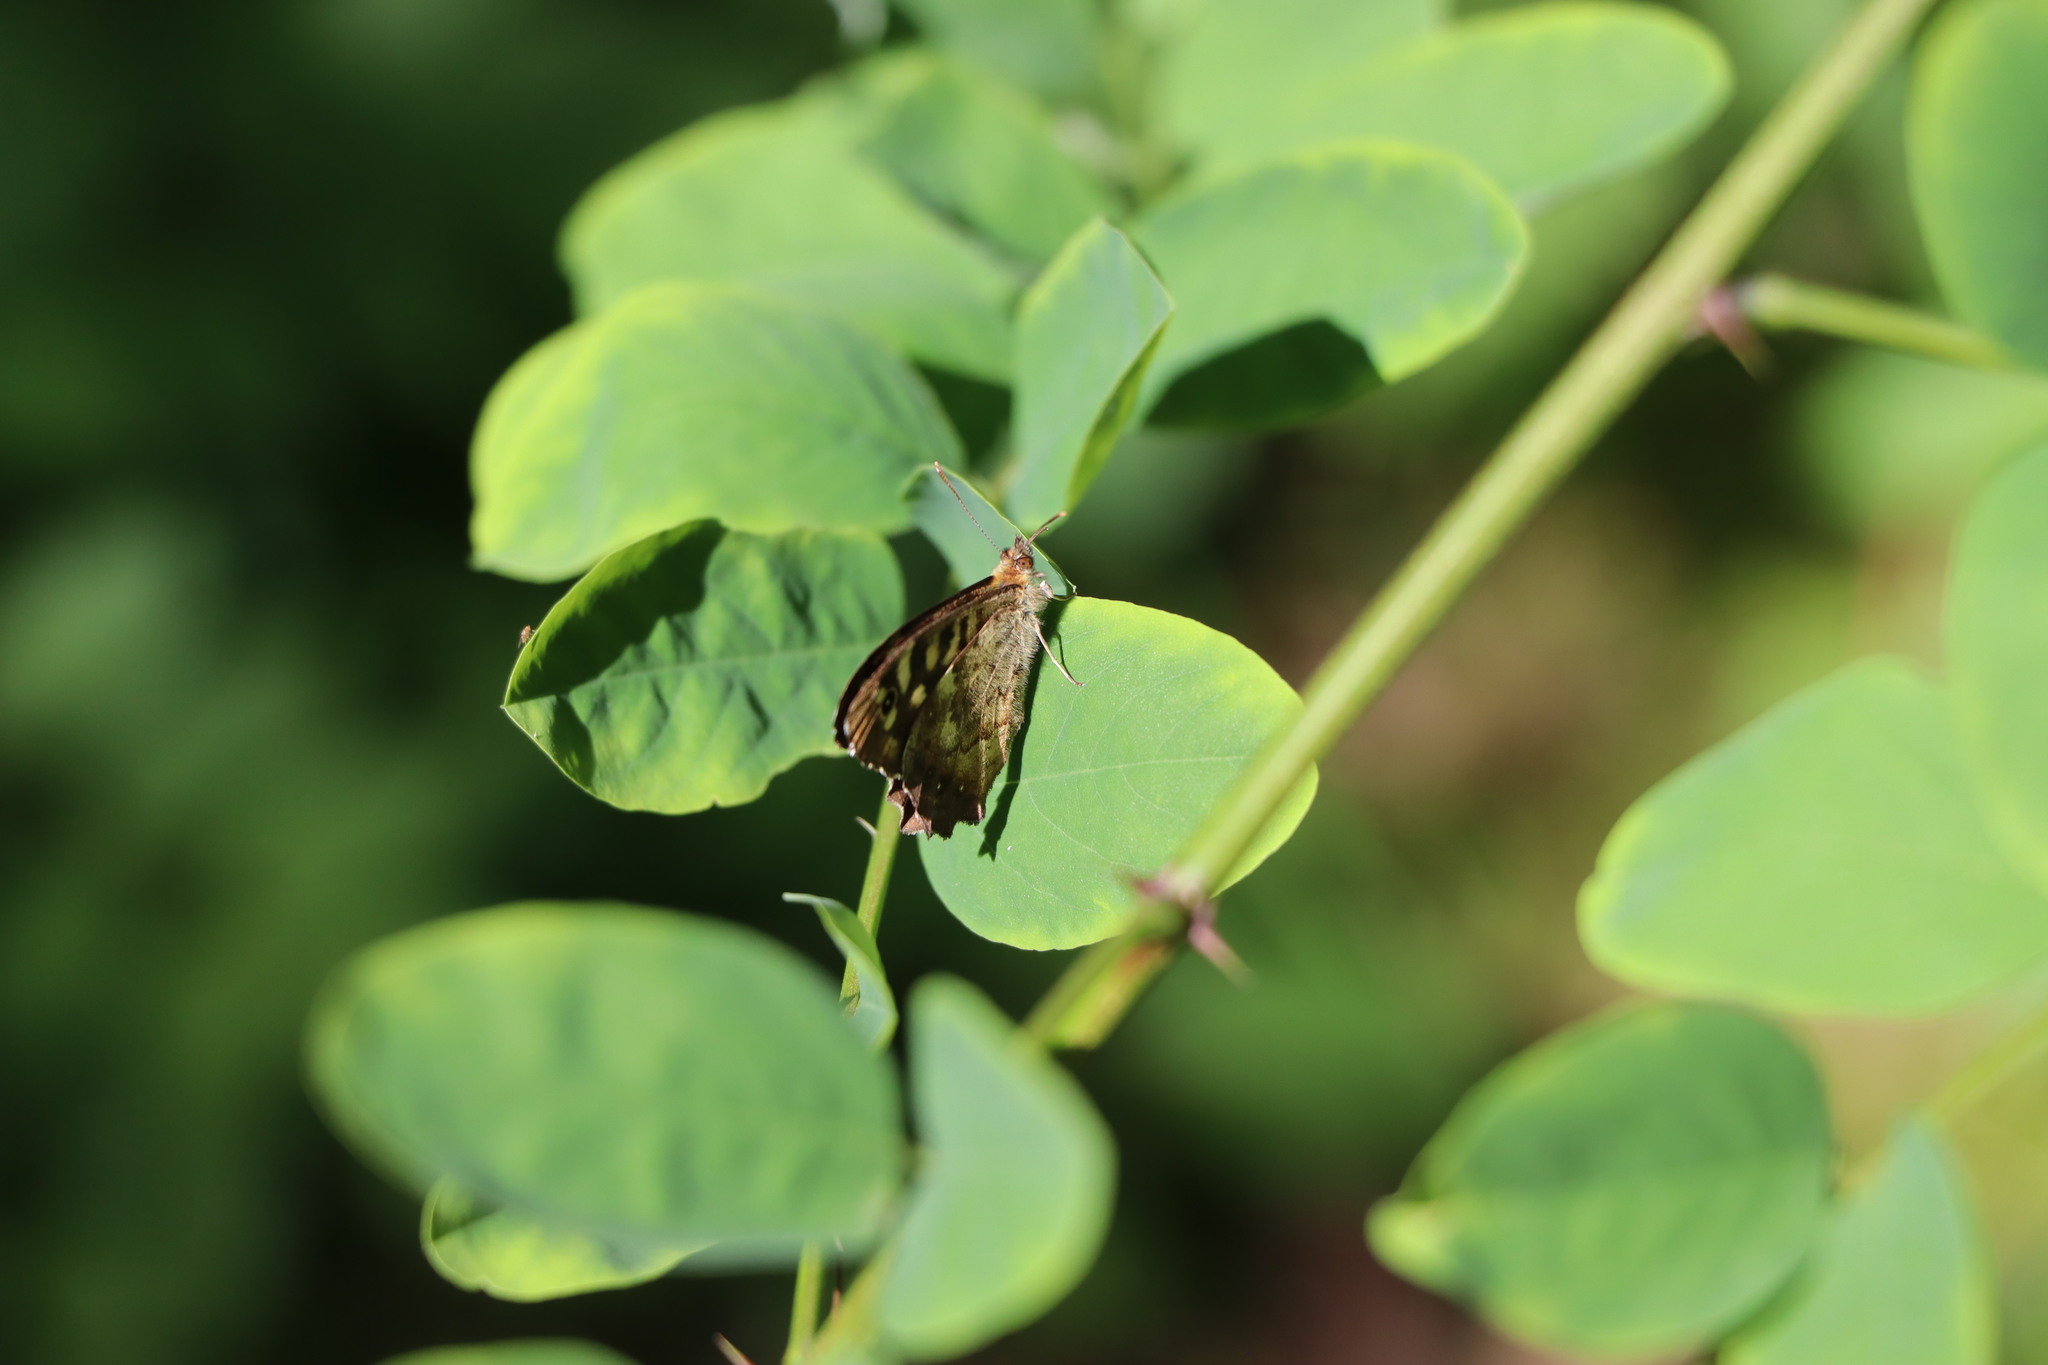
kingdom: Animalia
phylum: Arthropoda
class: Insecta
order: Lepidoptera
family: Nymphalidae
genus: Pararge
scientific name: Pararge aegeria
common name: Speckled wood
